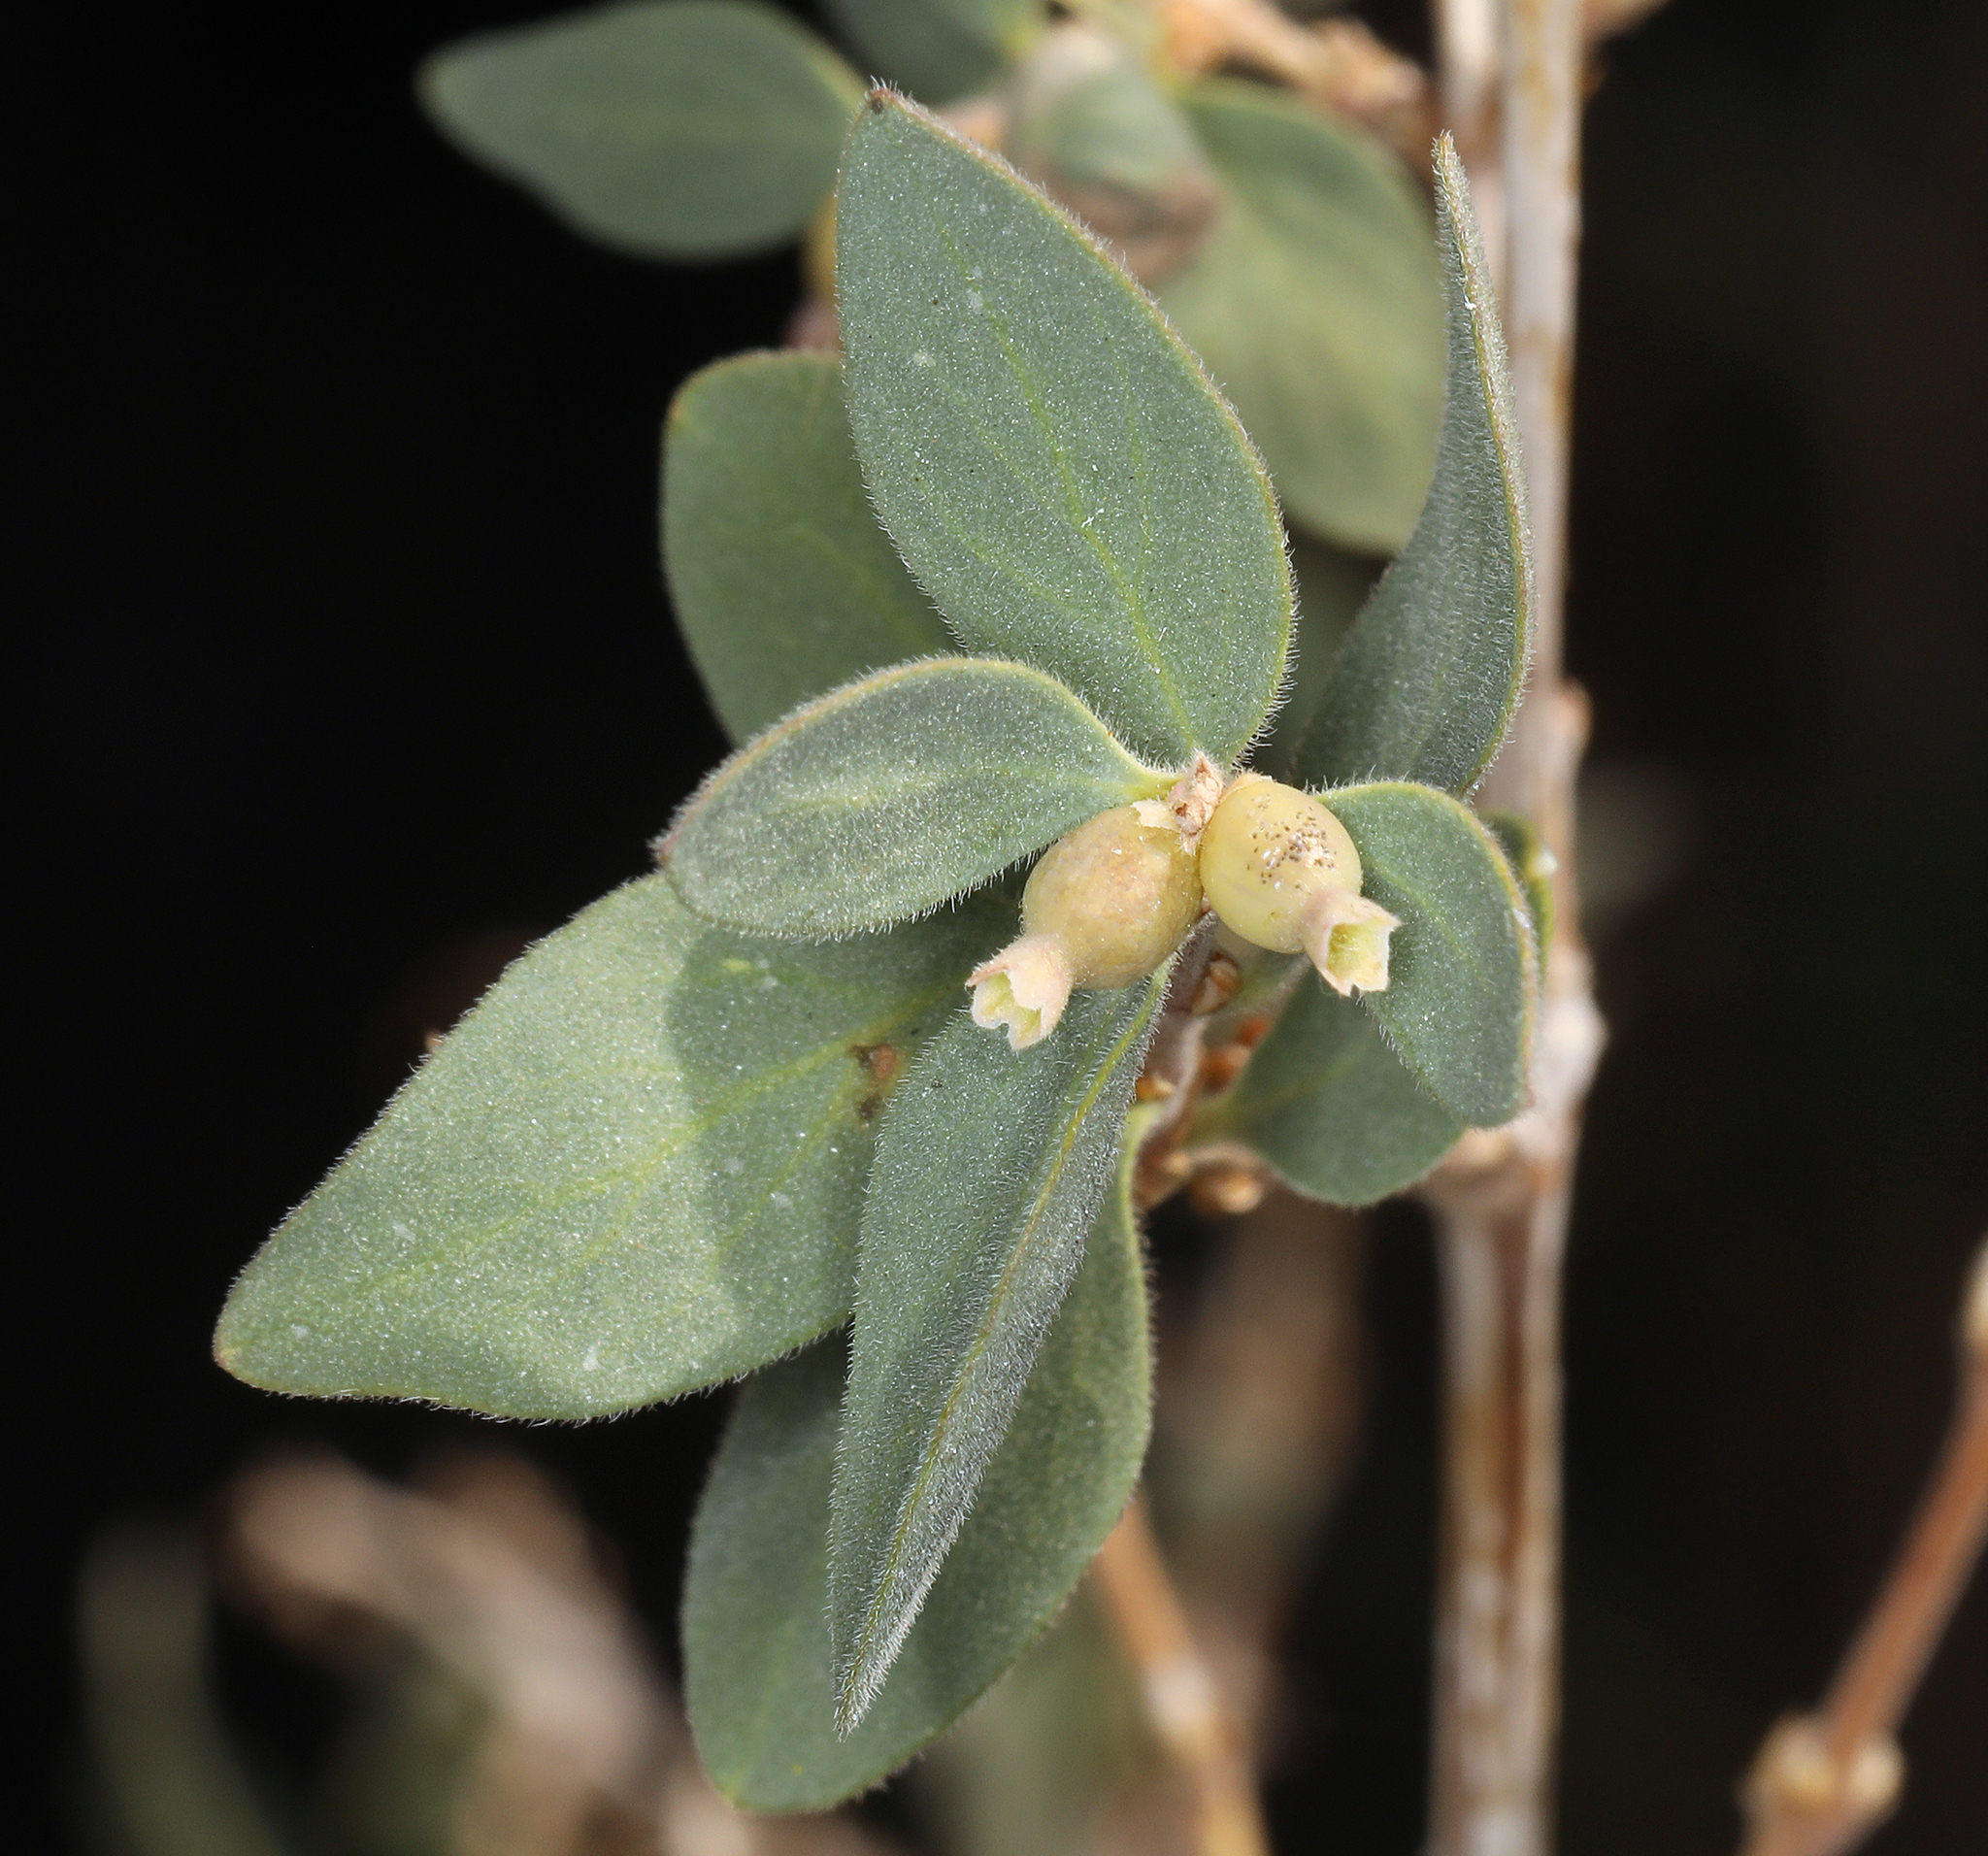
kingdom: Plantae
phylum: Tracheophyta
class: Magnoliopsida
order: Dipsacales
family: Caprifoliaceae
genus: Symphoricarpos
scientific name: Symphoricarpos longiflorus
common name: Fragrant snowberry
